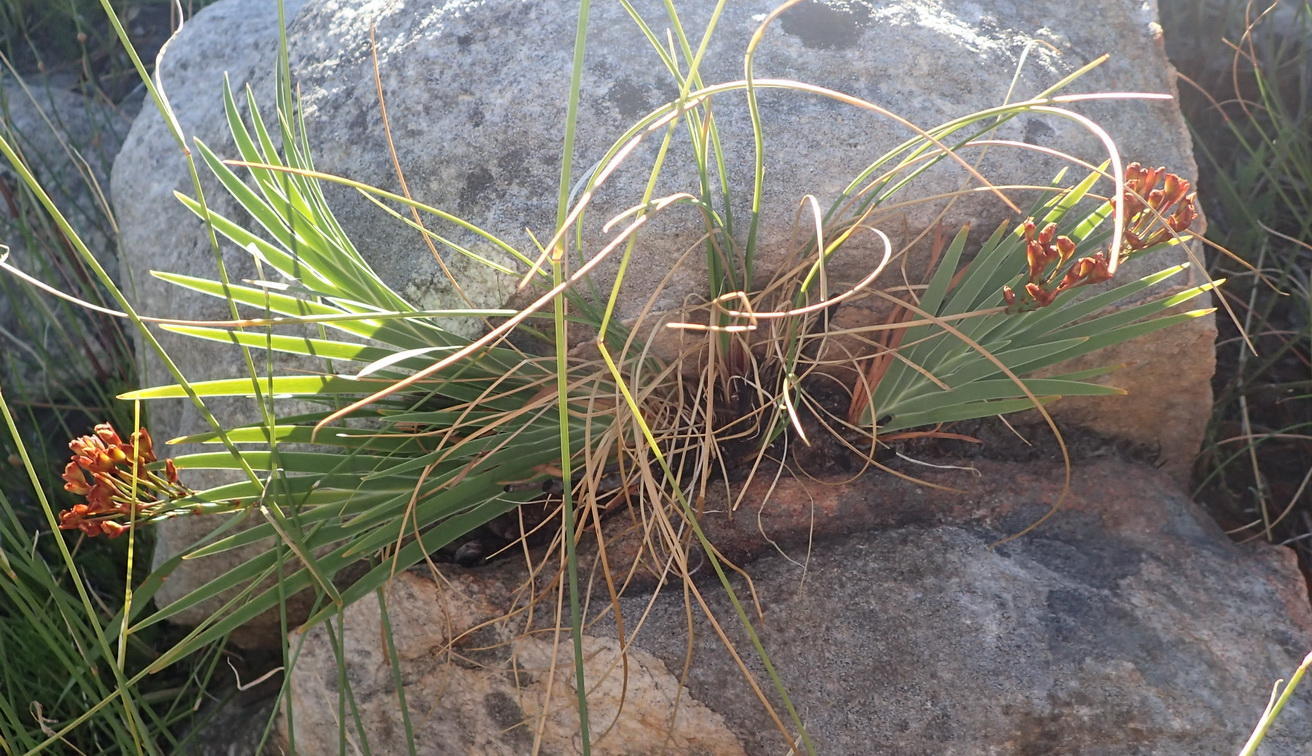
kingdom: Plantae
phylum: Tracheophyta
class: Liliopsida
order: Asparagales
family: Iridaceae
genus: Nivenia
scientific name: Nivenia binata
